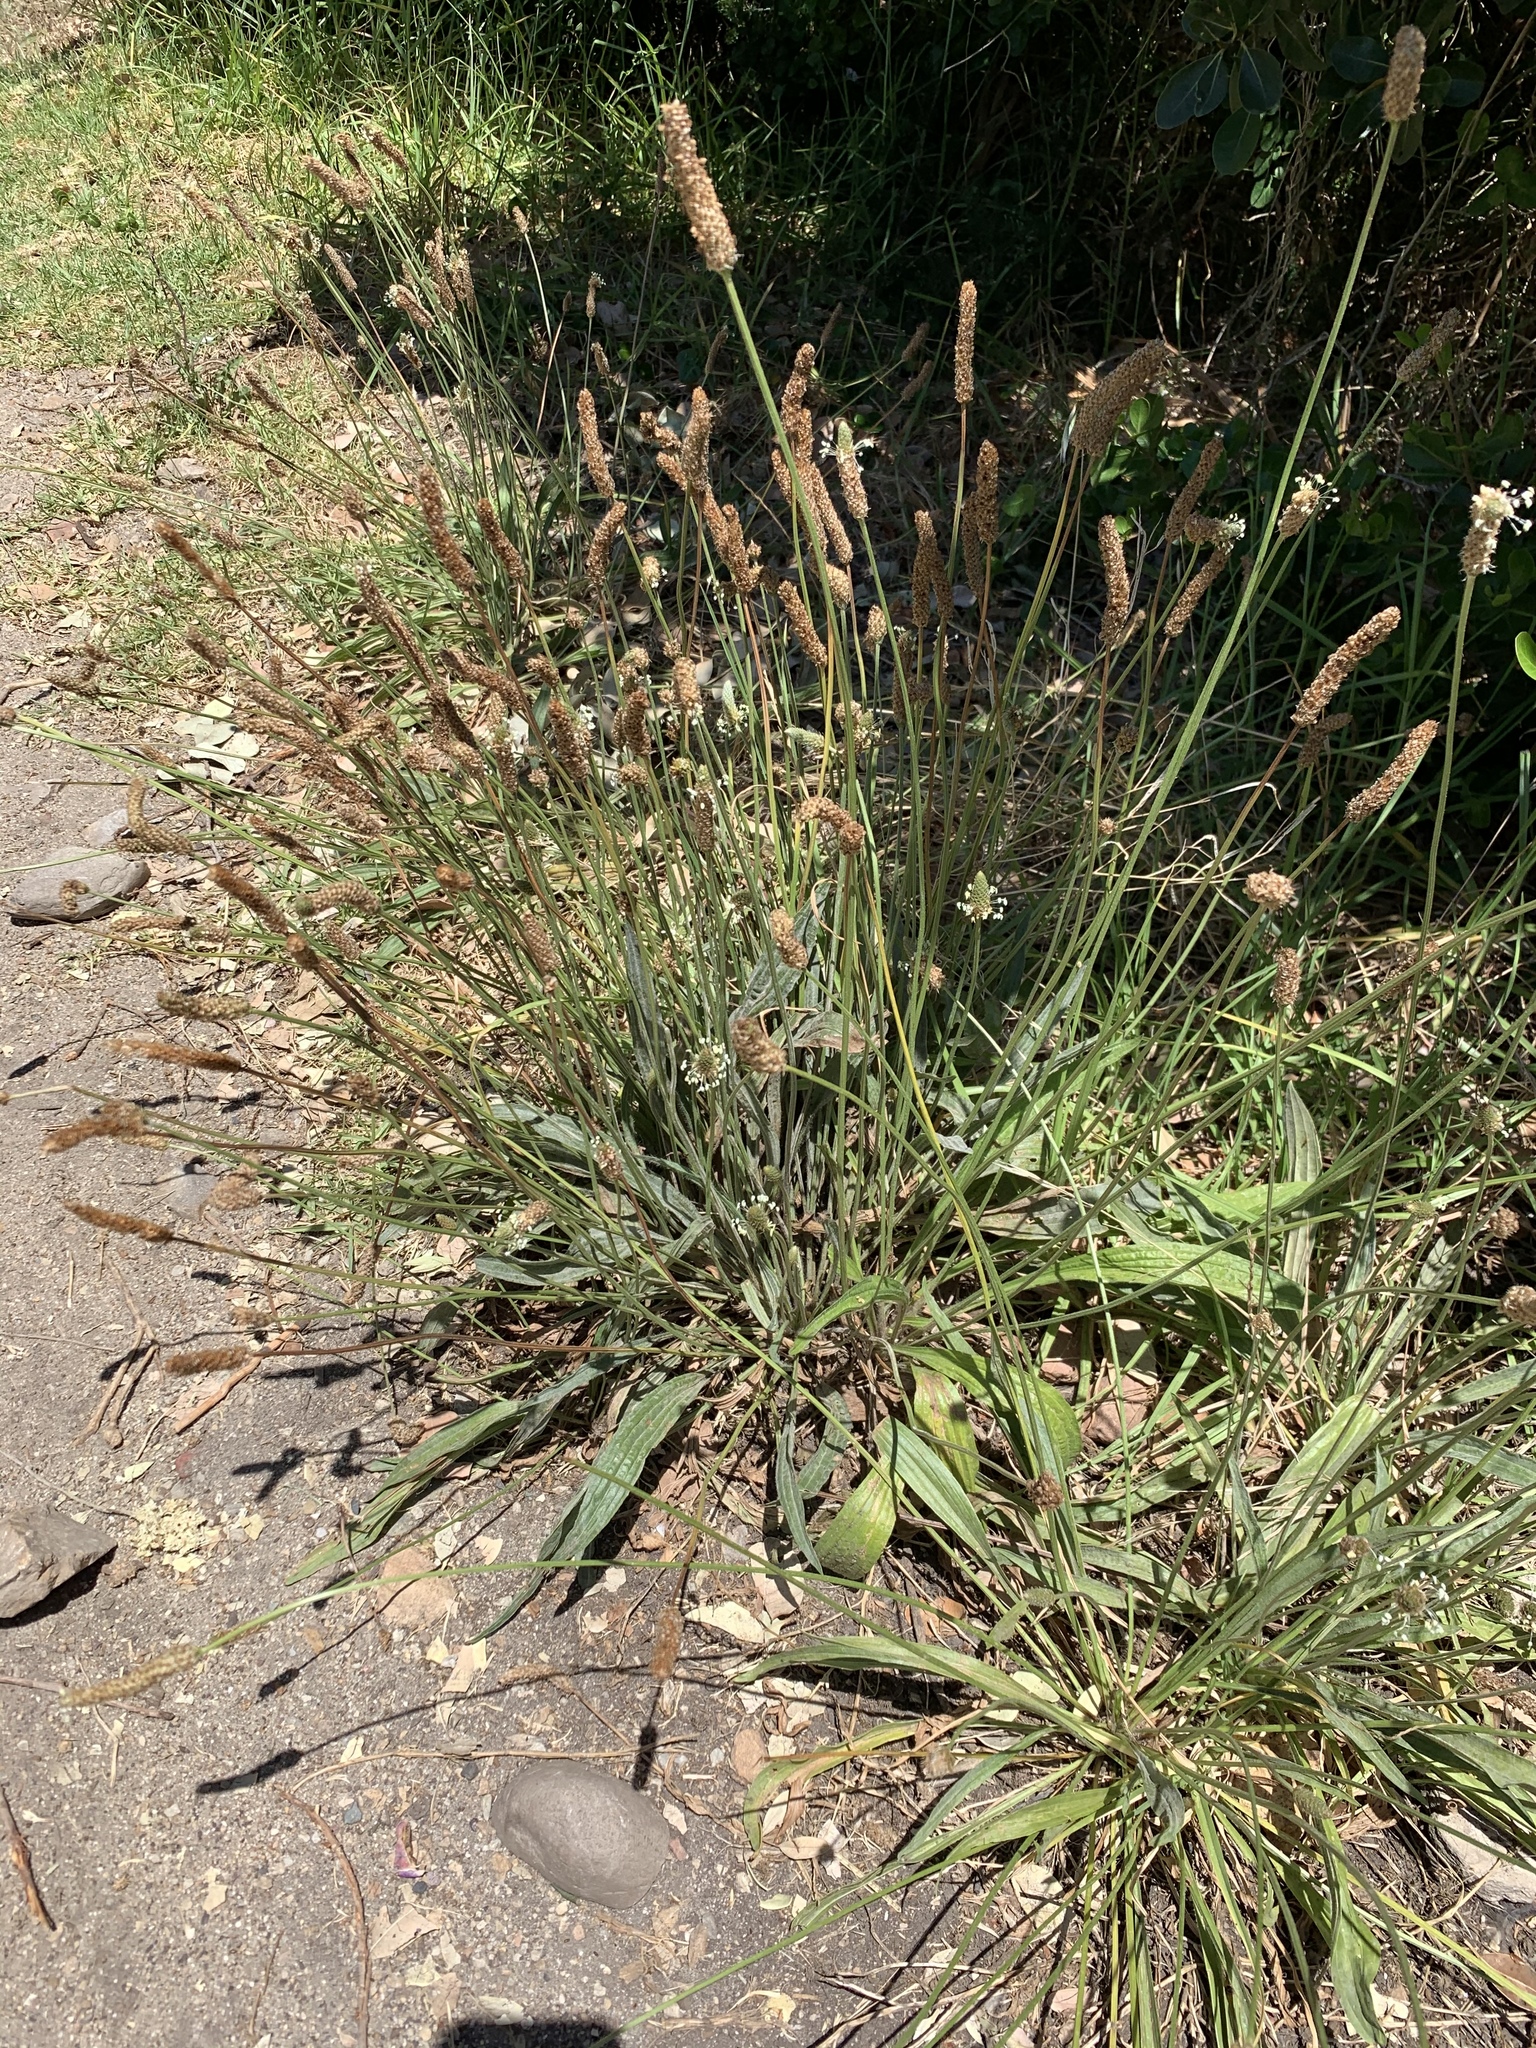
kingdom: Plantae
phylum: Tracheophyta
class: Magnoliopsida
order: Lamiales
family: Plantaginaceae
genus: Plantago
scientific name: Plantago lanceolata
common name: Ribwort plantain
